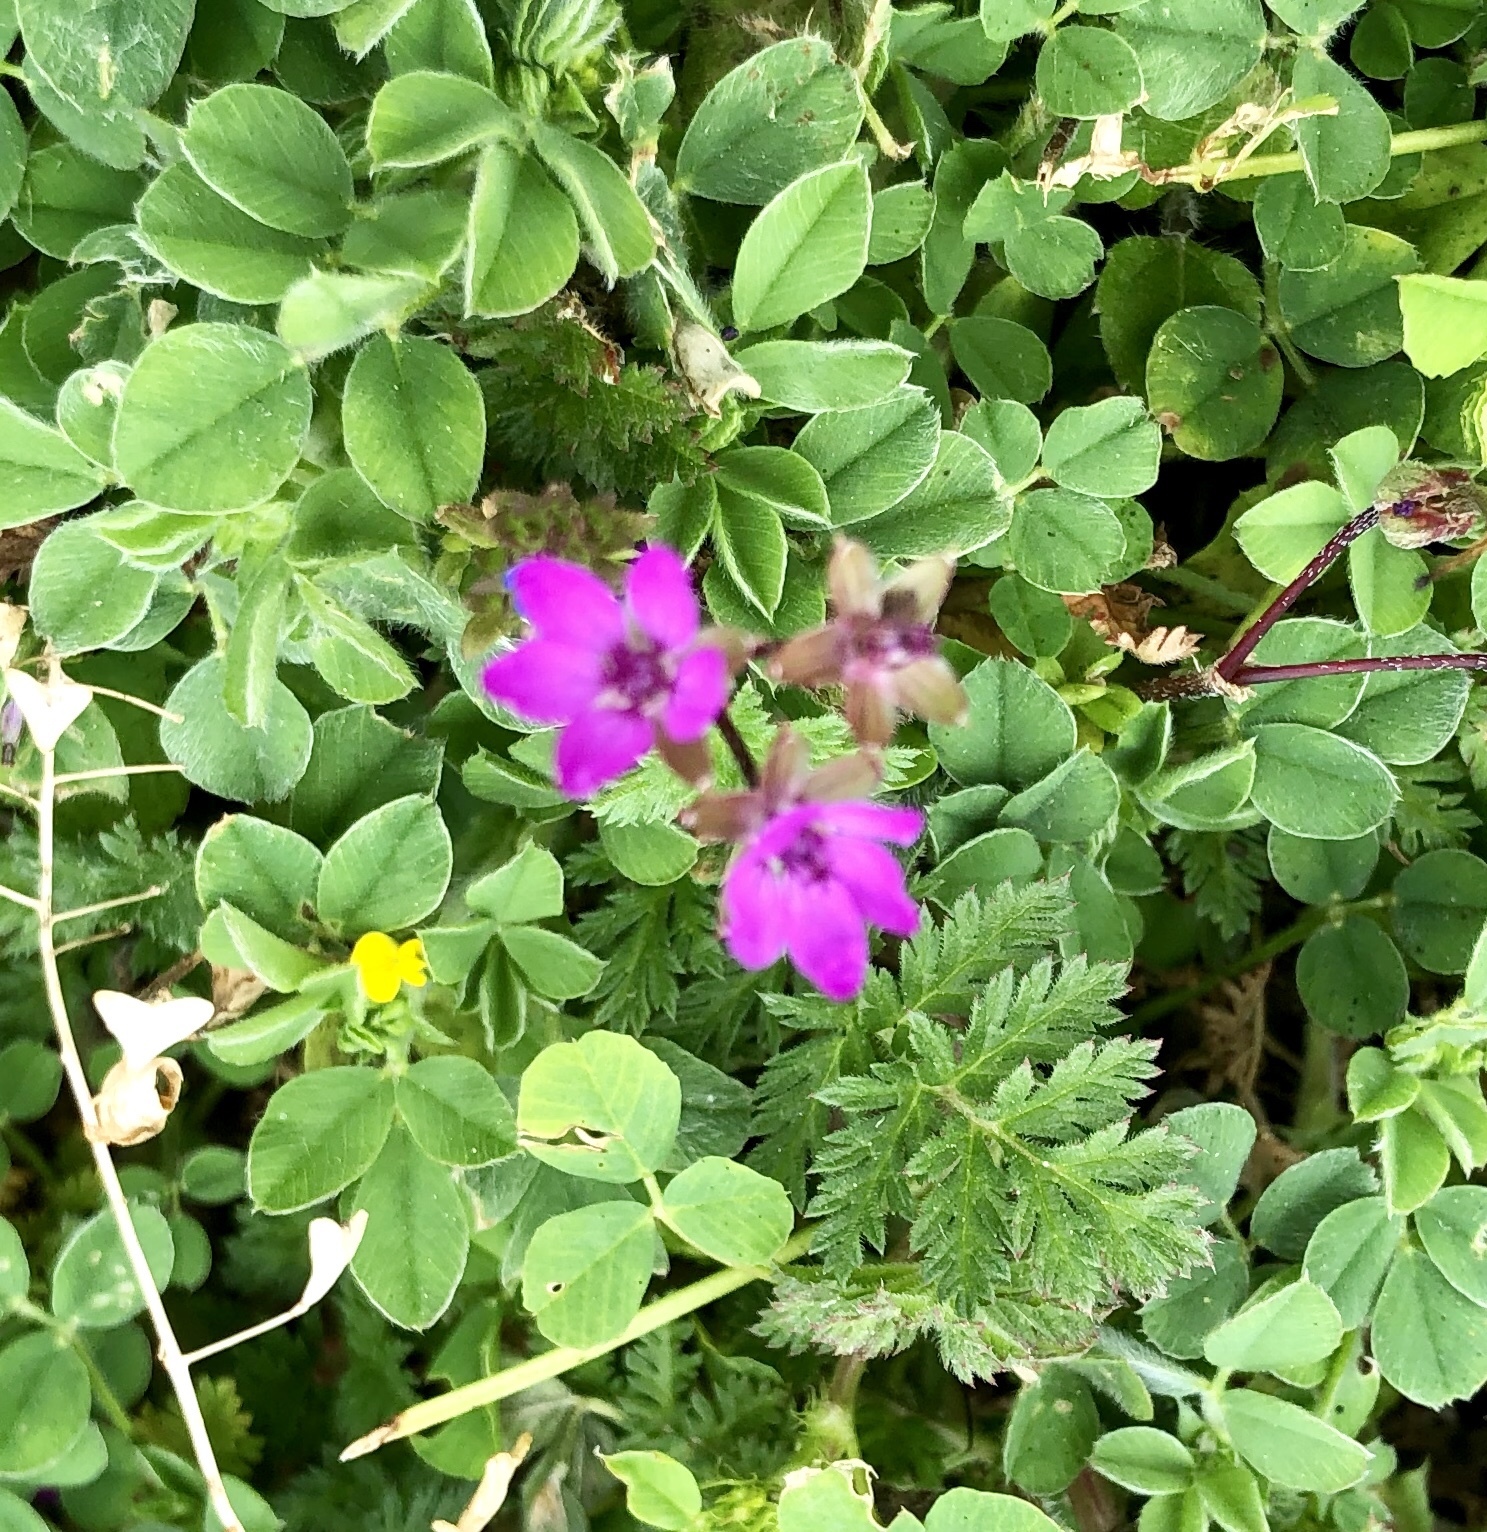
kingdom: Plantae
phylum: Tracheophyta
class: Magnoliopsida
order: Geraniales
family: Geraniaceae
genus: Erodium
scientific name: Erodium cicutarium
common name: Common stork's-bill
